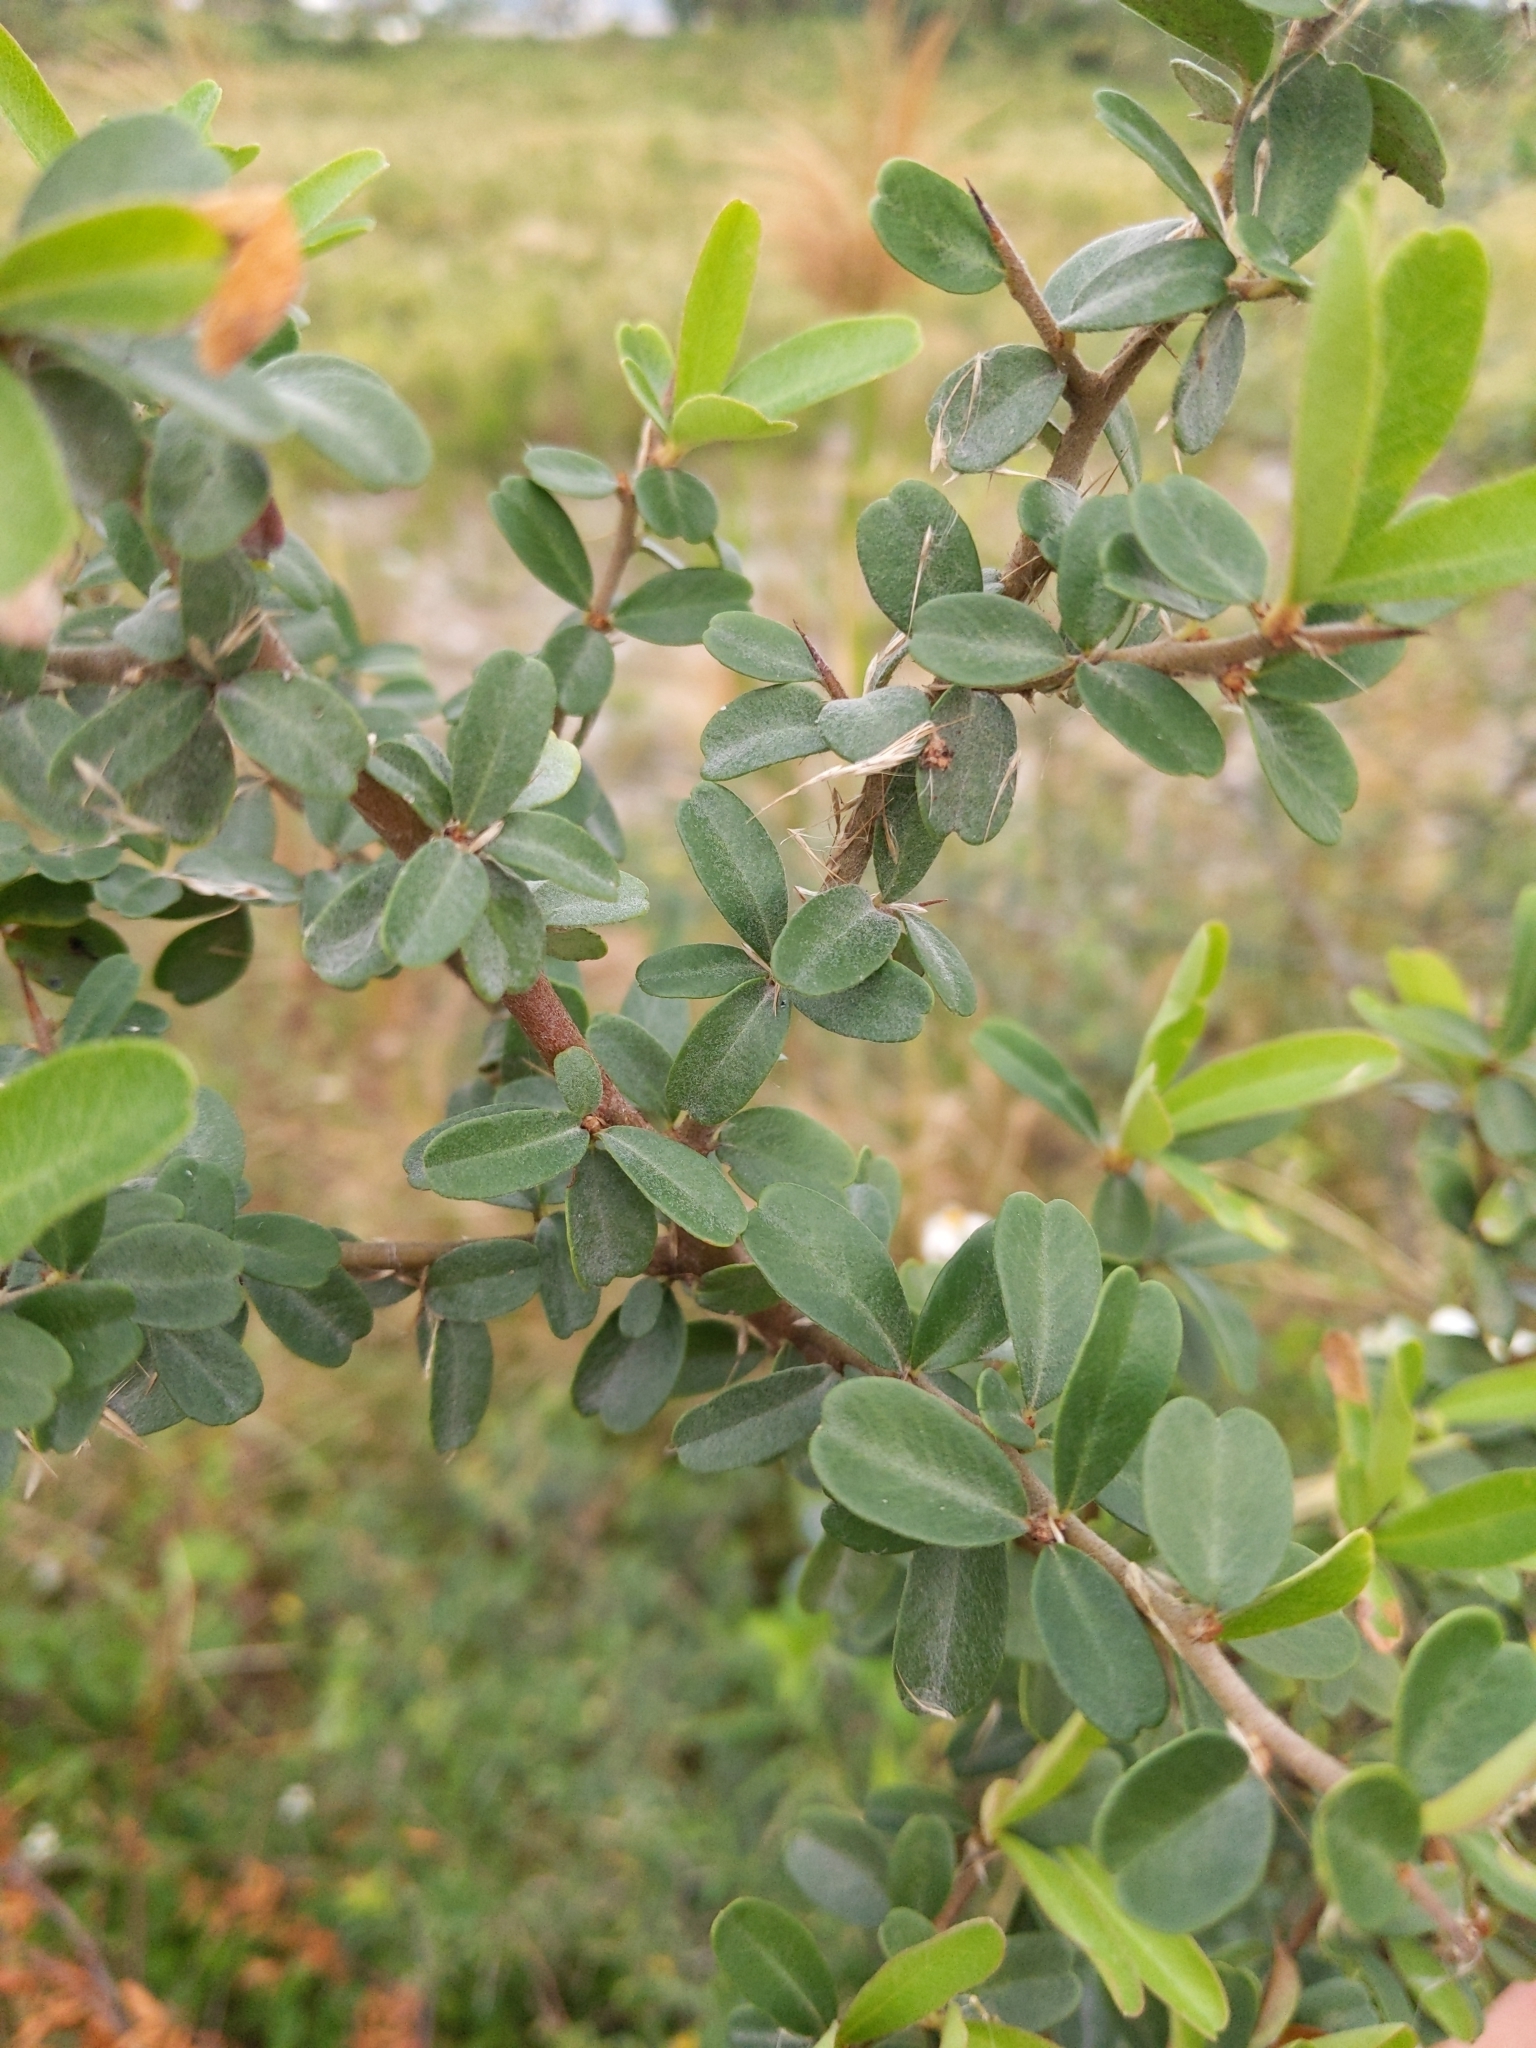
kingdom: Plantae
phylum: Tracheophyta
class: Magnoliopsida
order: Rosales
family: Rosaceae
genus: Pyracantha
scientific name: Pyracantha koidzumii
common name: Formosa firethorn
